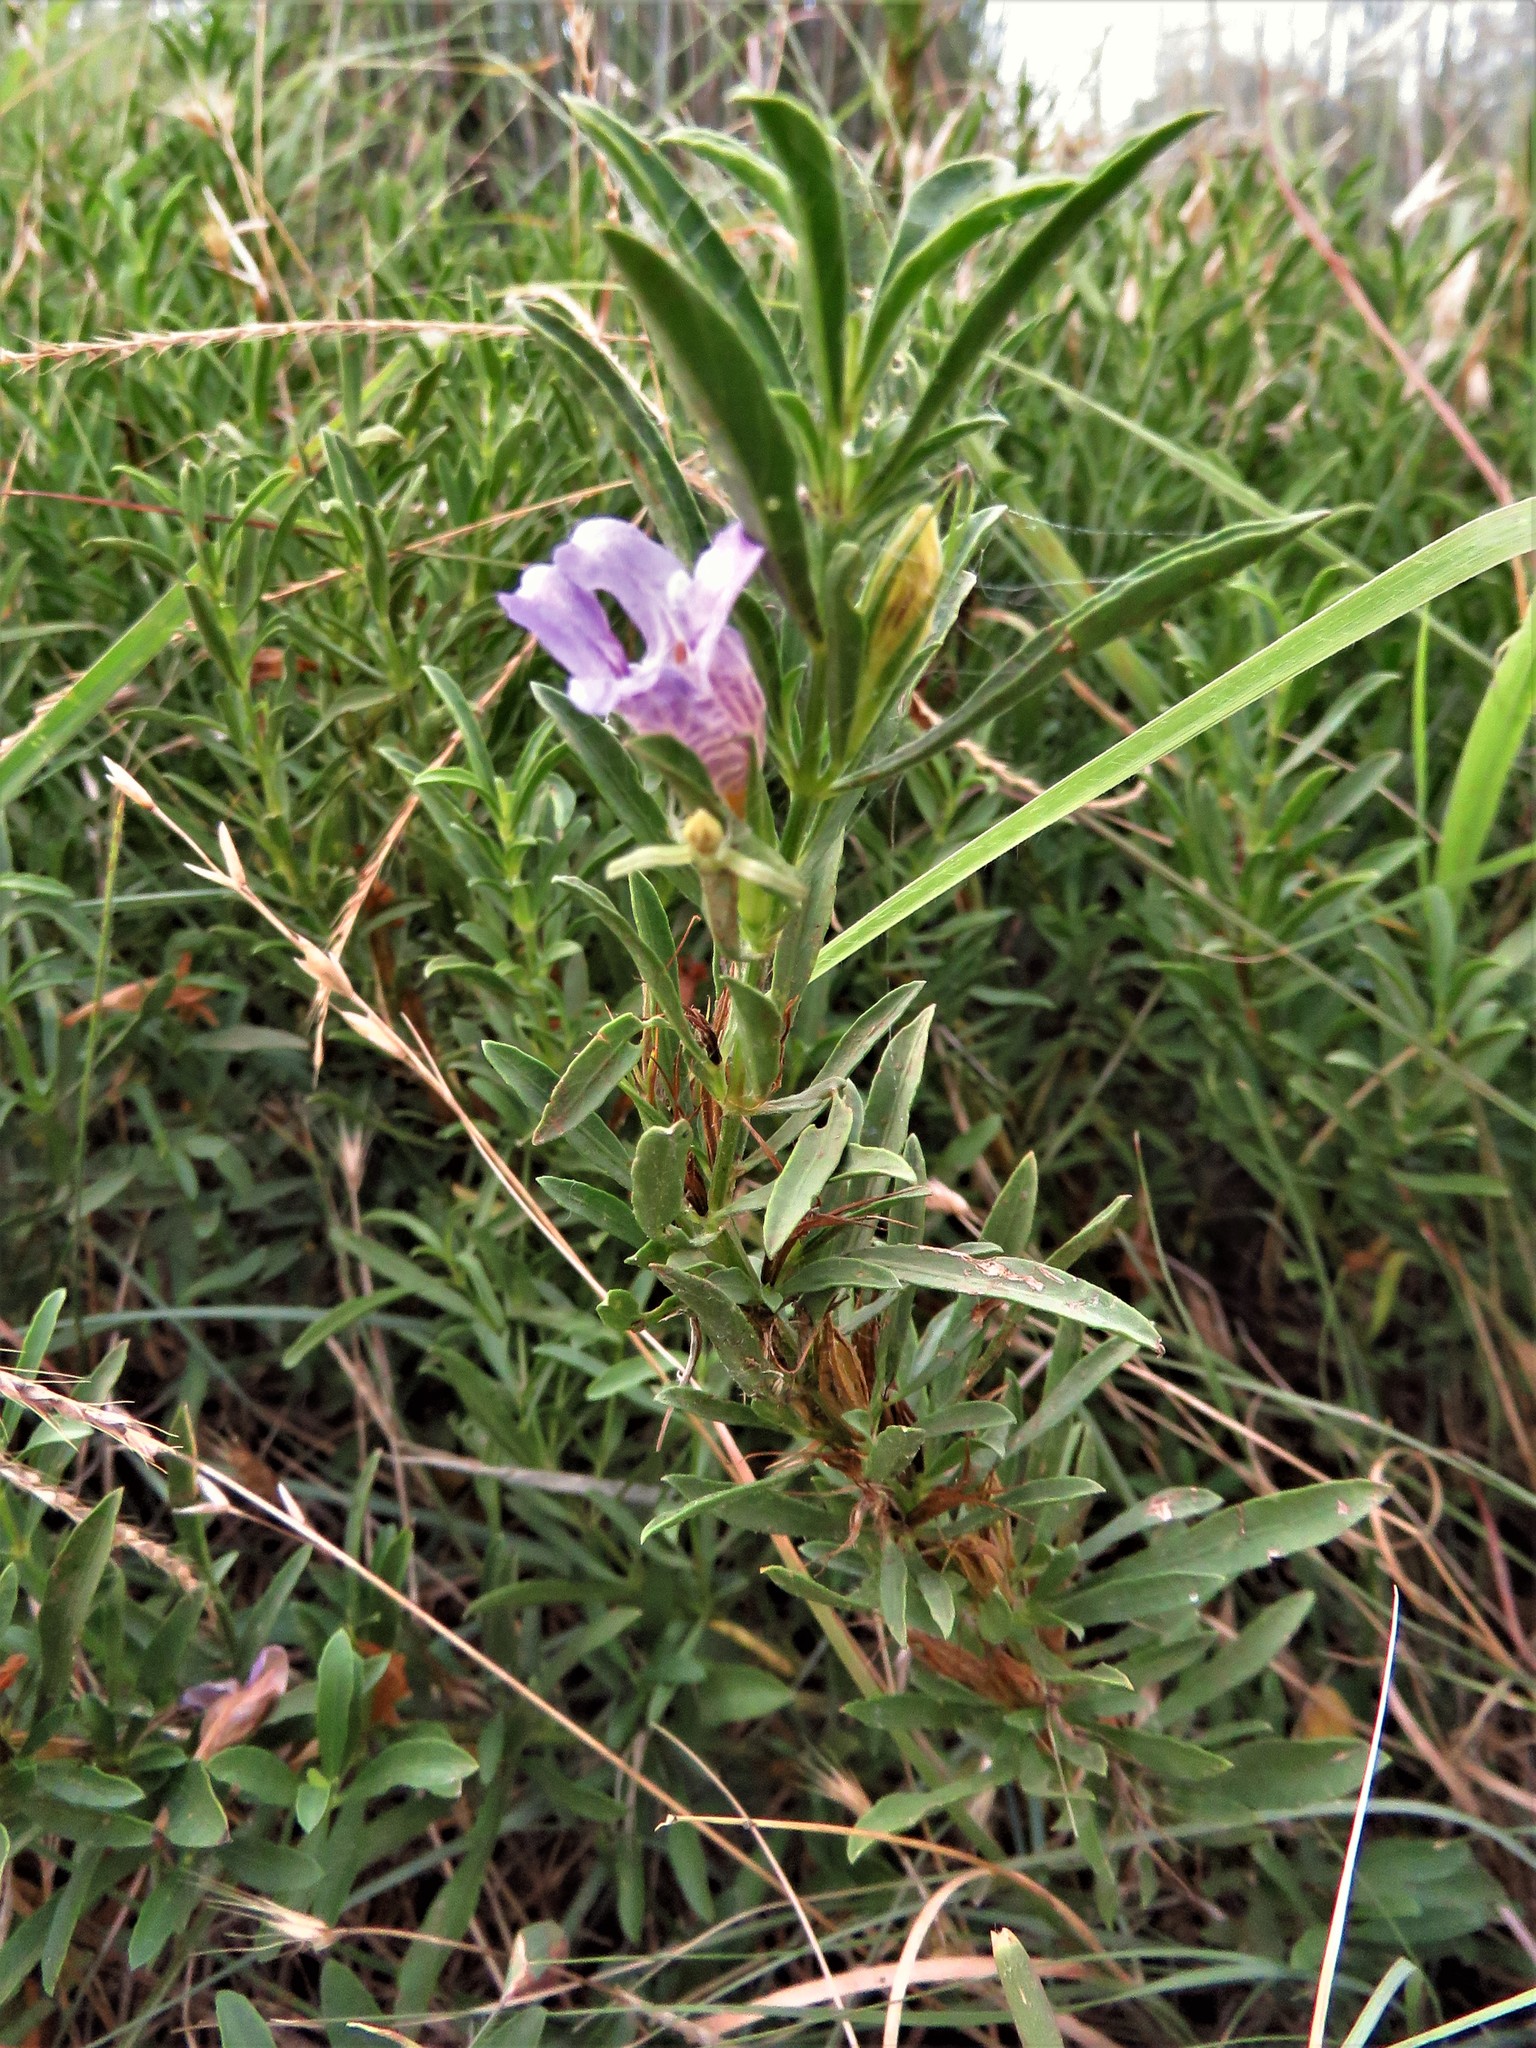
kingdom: Plantae
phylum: Tracheophyta
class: Magnoliopsida
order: Lamiales
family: Acanthaceae
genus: Dyschoriste
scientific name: Dyschoriste linearis
